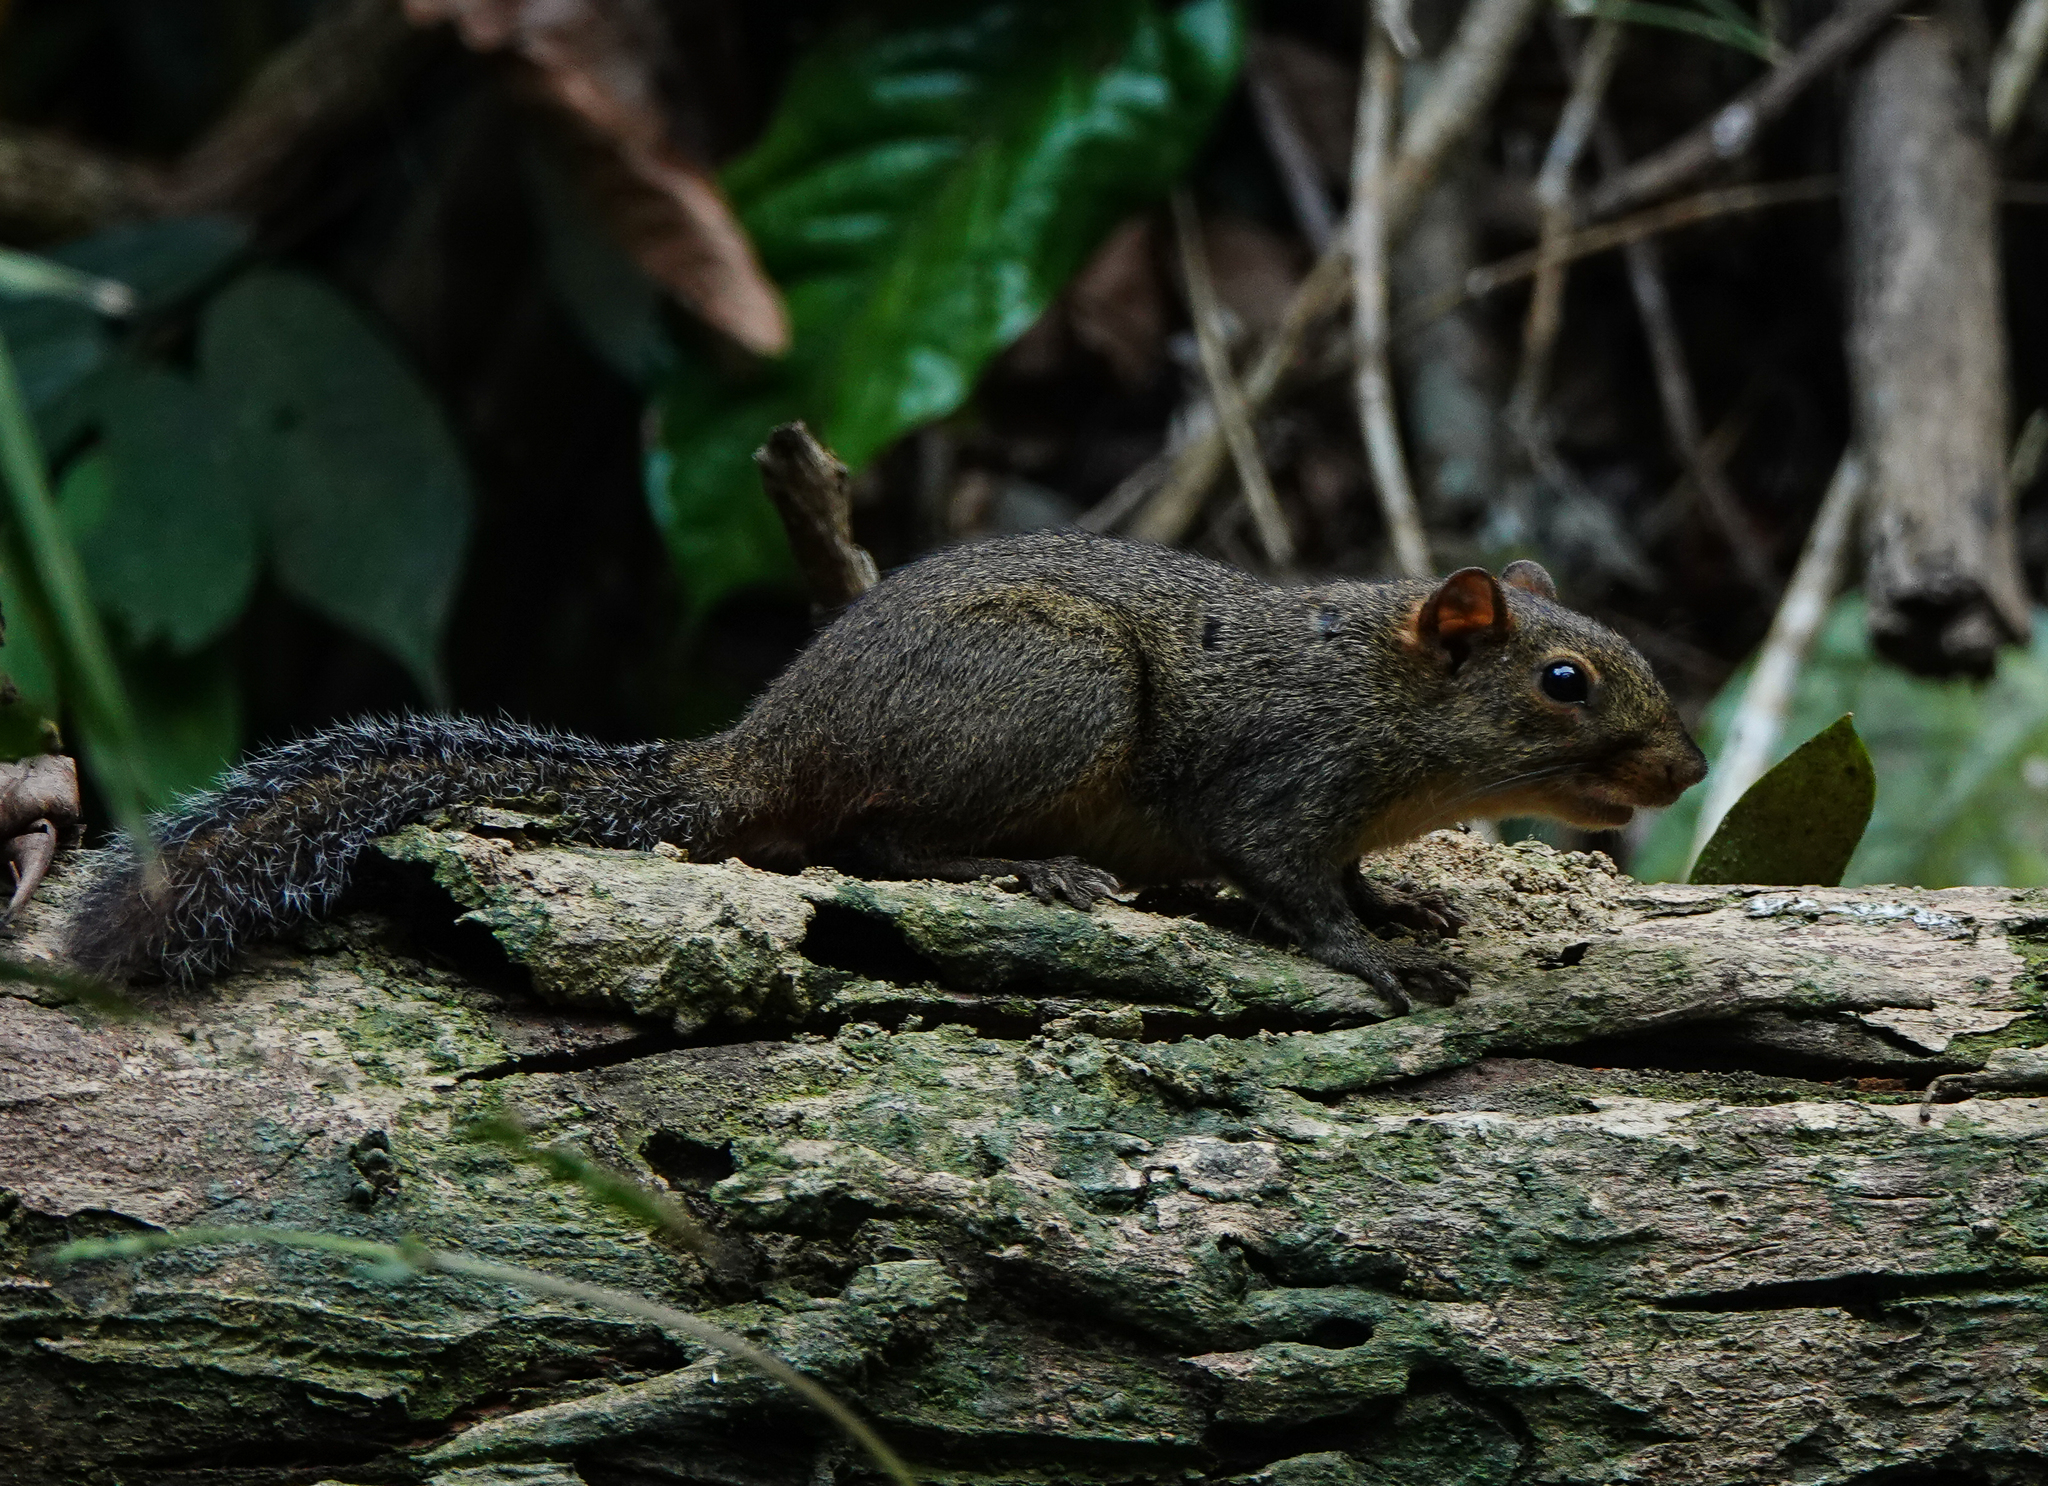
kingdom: Animalia
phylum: Chordata
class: Mammalia
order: Rodentia
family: Sciuridae
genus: Dremomys
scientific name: Dremomys lokriah
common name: Orange-bellied himalayan squirrel
